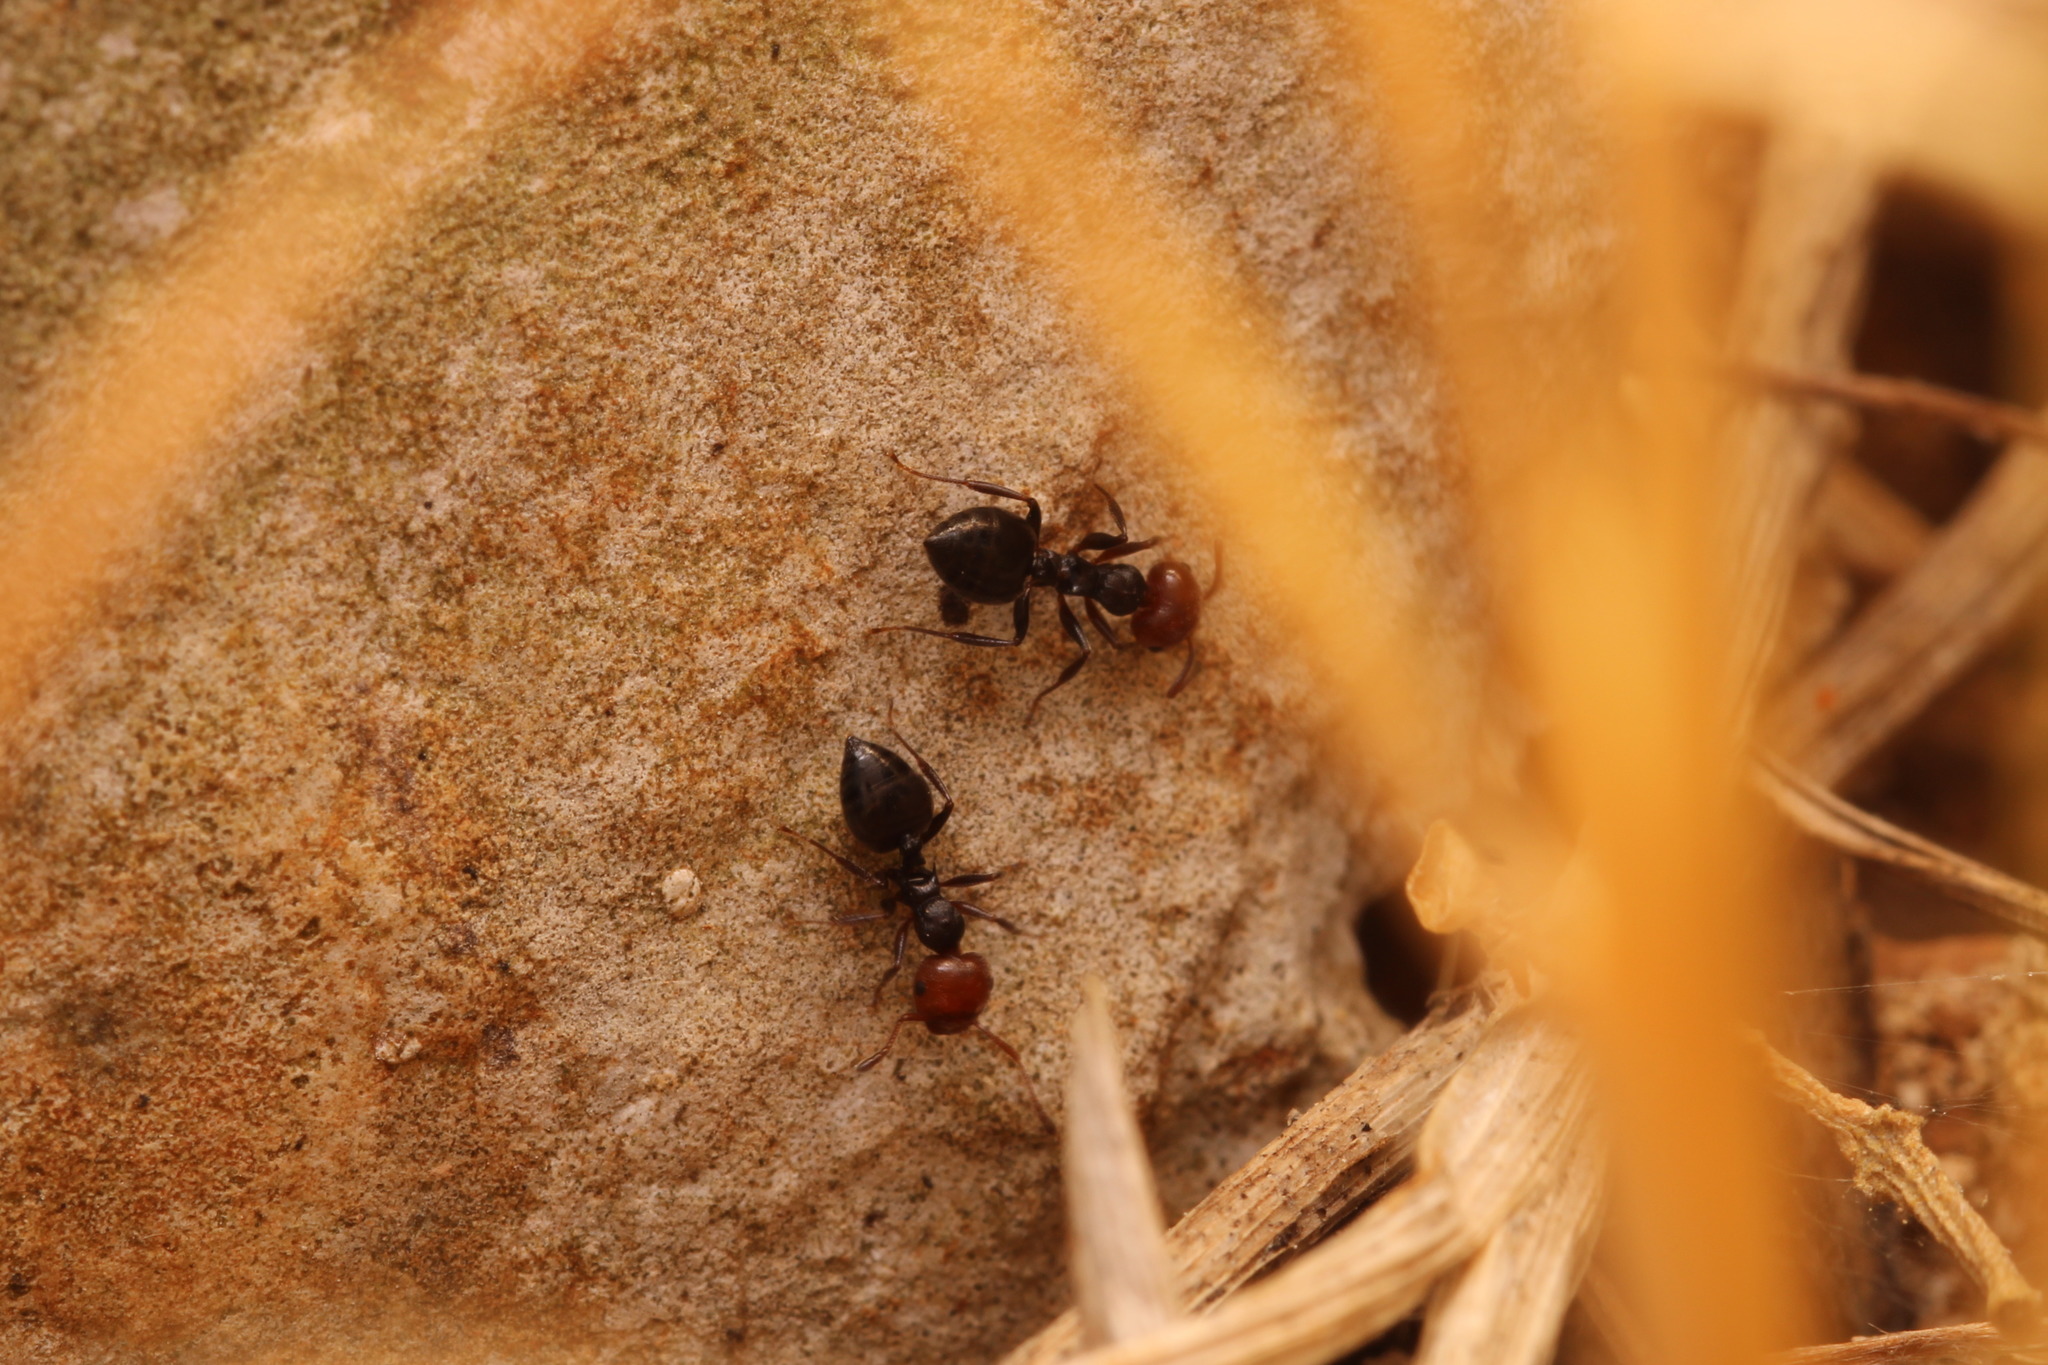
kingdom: Animalia
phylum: Arthropoda
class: Insecta
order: Hymenoptera
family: Formicidae
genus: Crematogaster
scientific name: Crematogaster scutellaris
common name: Fourmi du liège
